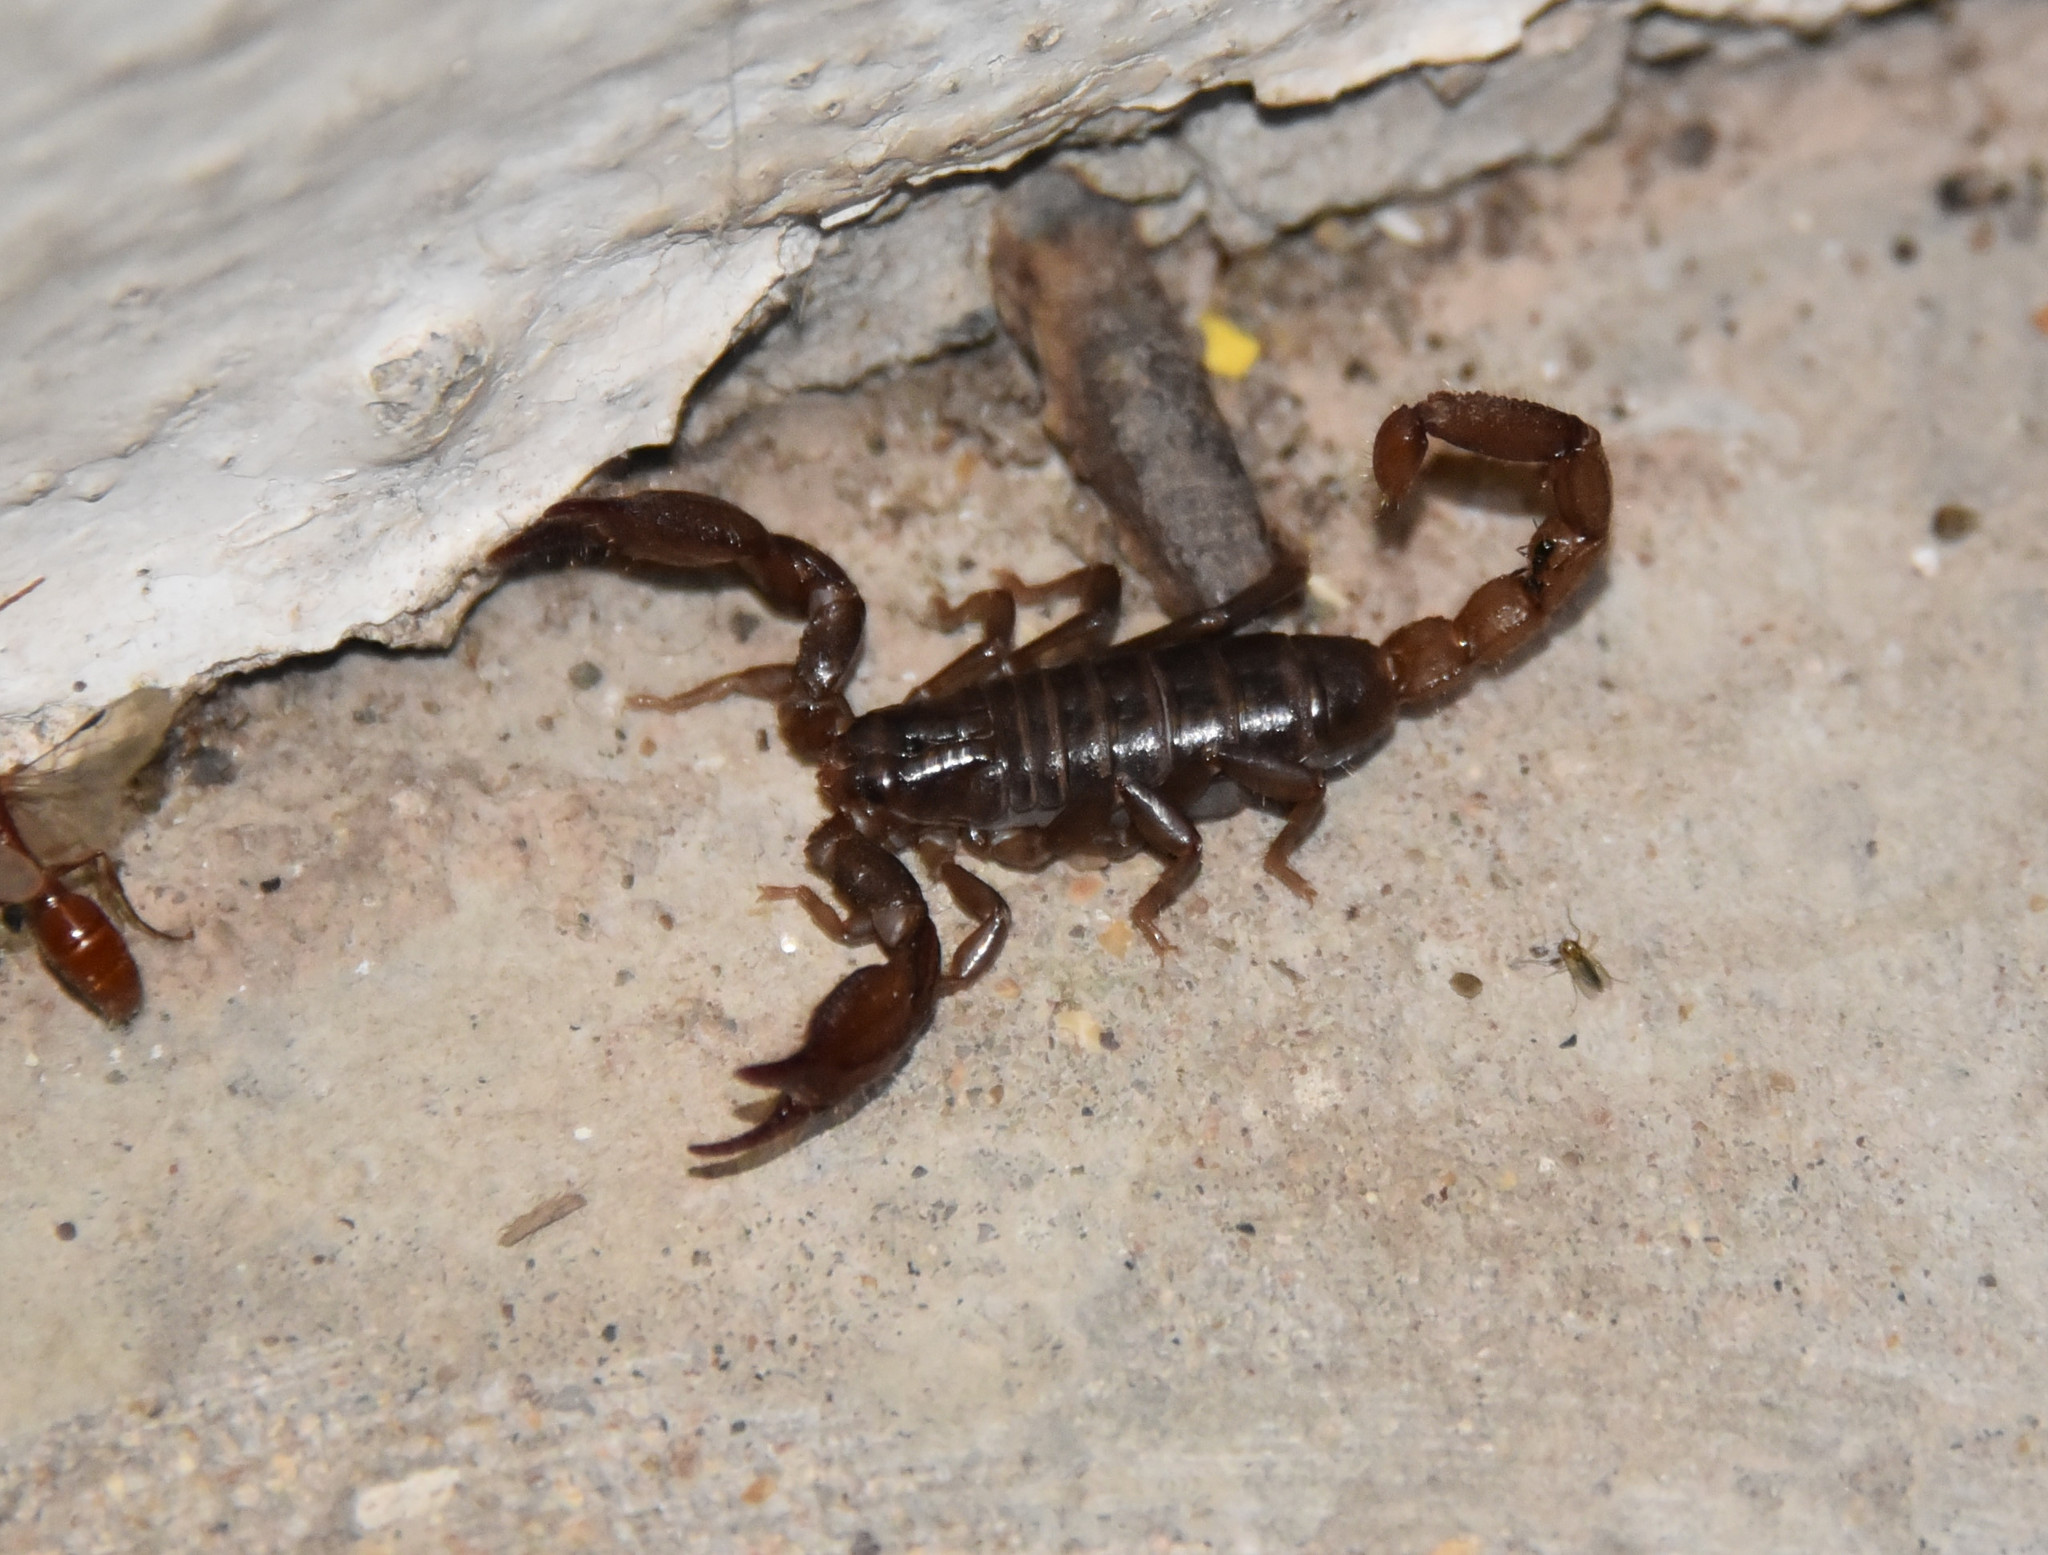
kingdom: Animalia
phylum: Arthropoda
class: Arachnida
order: Scorpiones
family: Diplocentridae
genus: Diplocentrus
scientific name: Diplocentrus lindo
